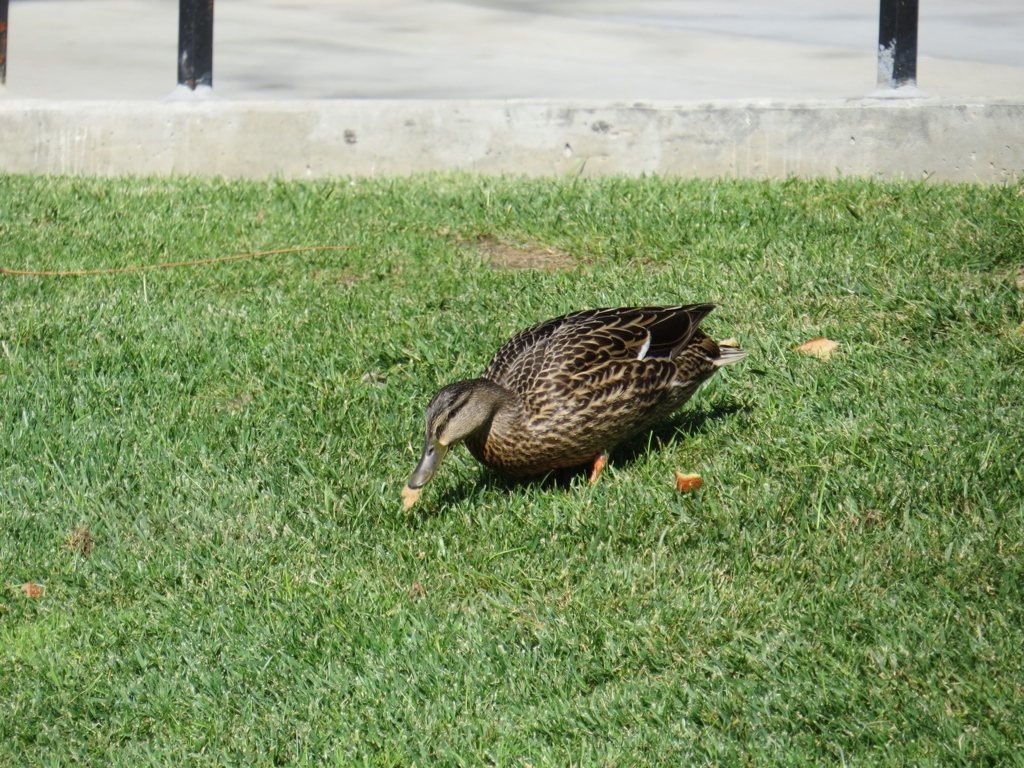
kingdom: Animalia
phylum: Chordata
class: Aves
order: Anseriformes
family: Anatidae
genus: Anas
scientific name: Anas platyrhynchos
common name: Mallard
